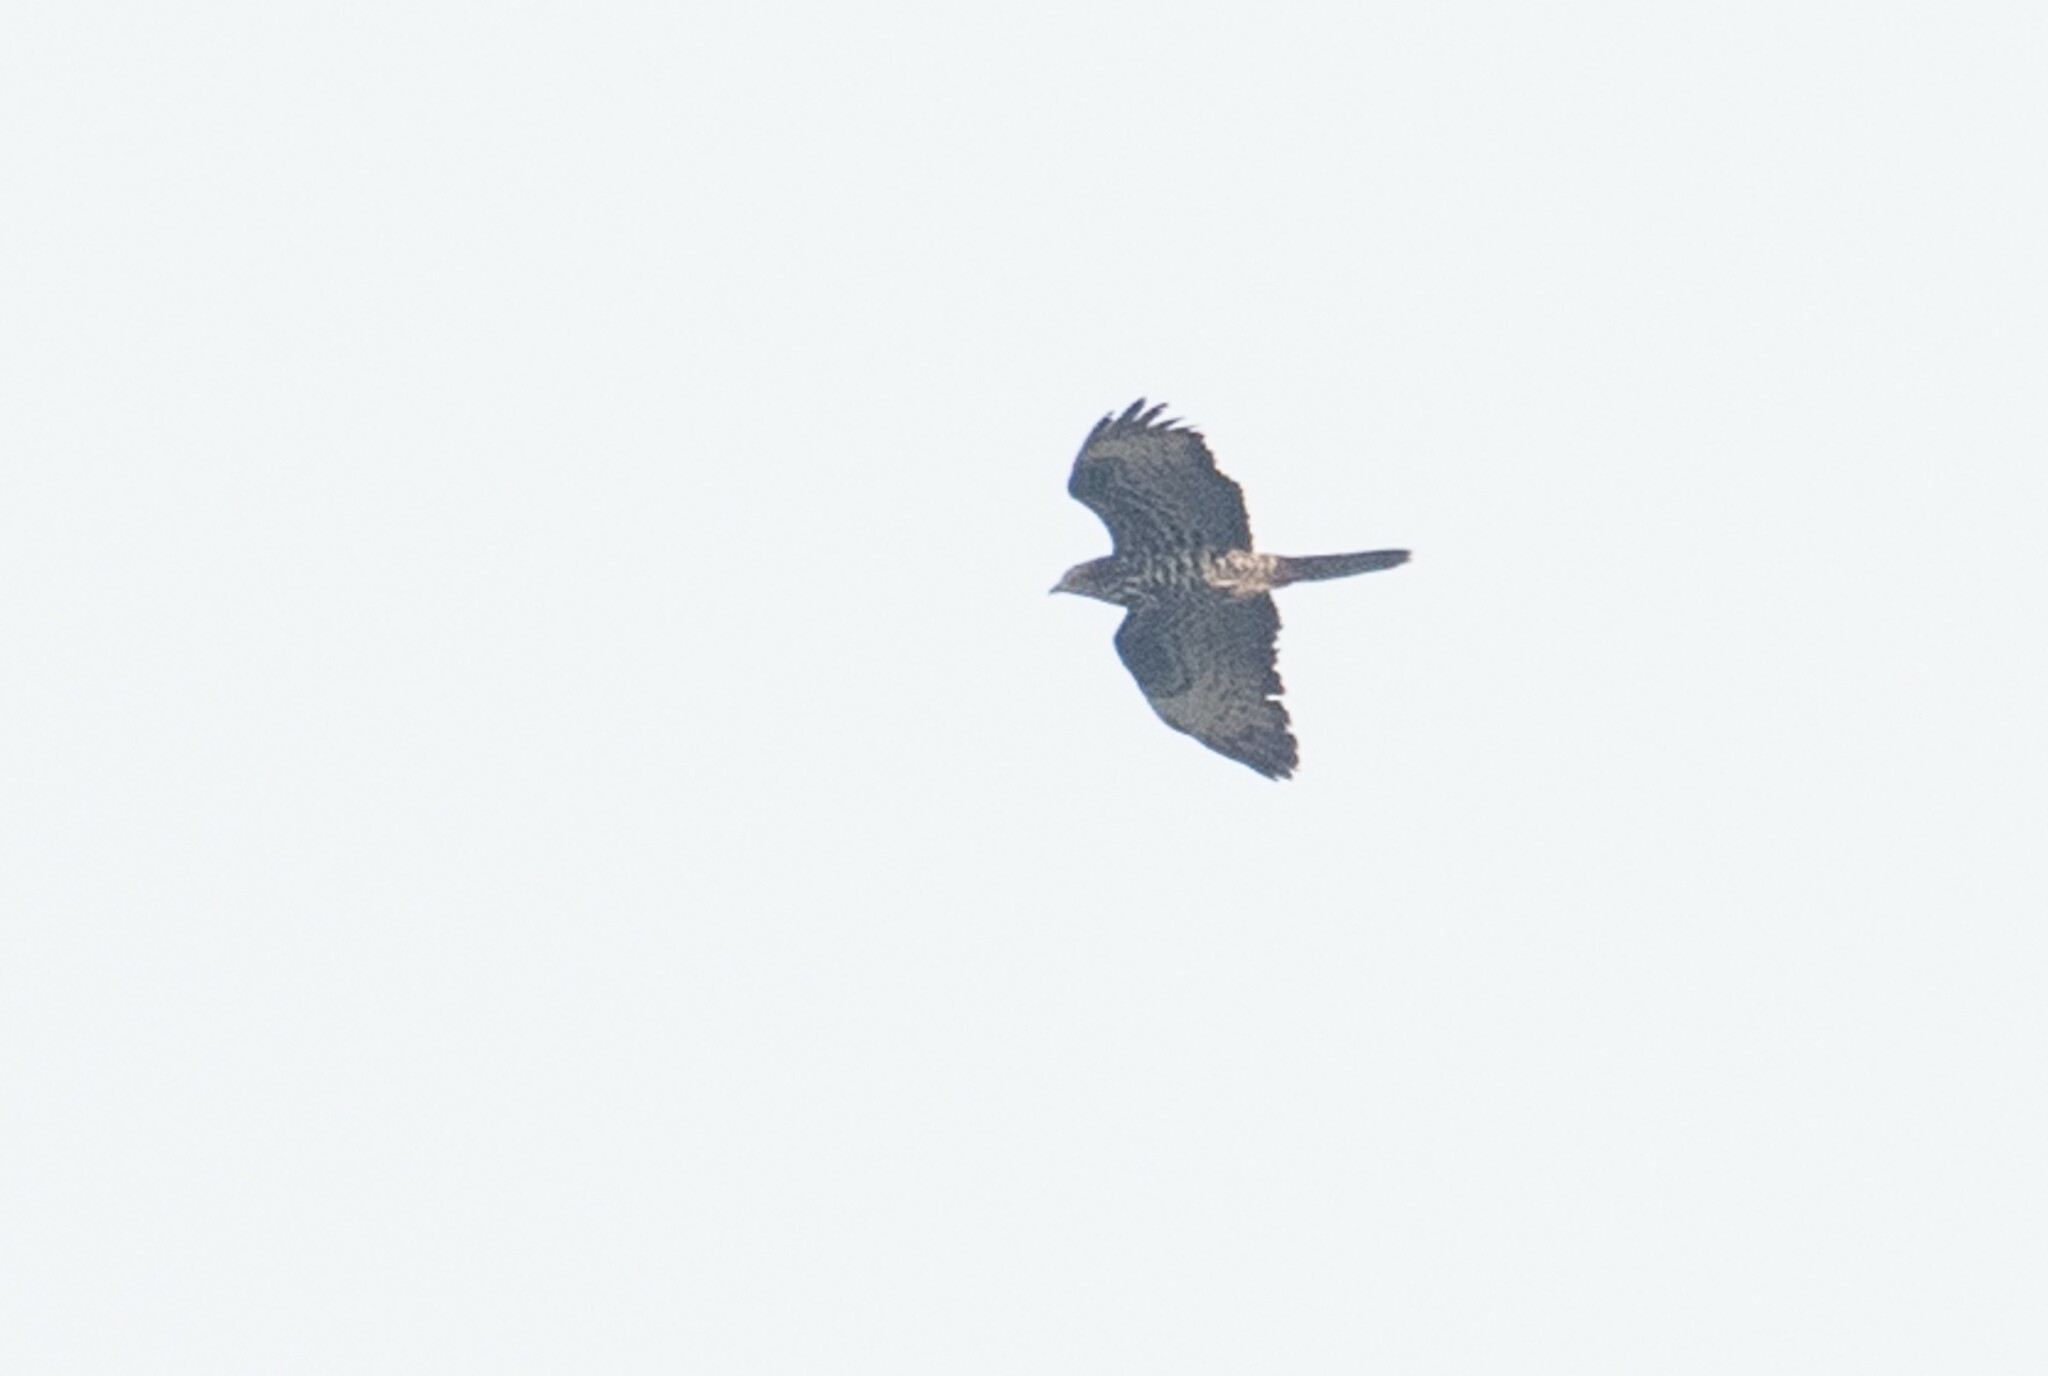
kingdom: Animalia
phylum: Chordata
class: Aves
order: Accipitriformes
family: Accipitridae
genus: Pernis
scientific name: Pernis apivorus
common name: European honey buzzard
